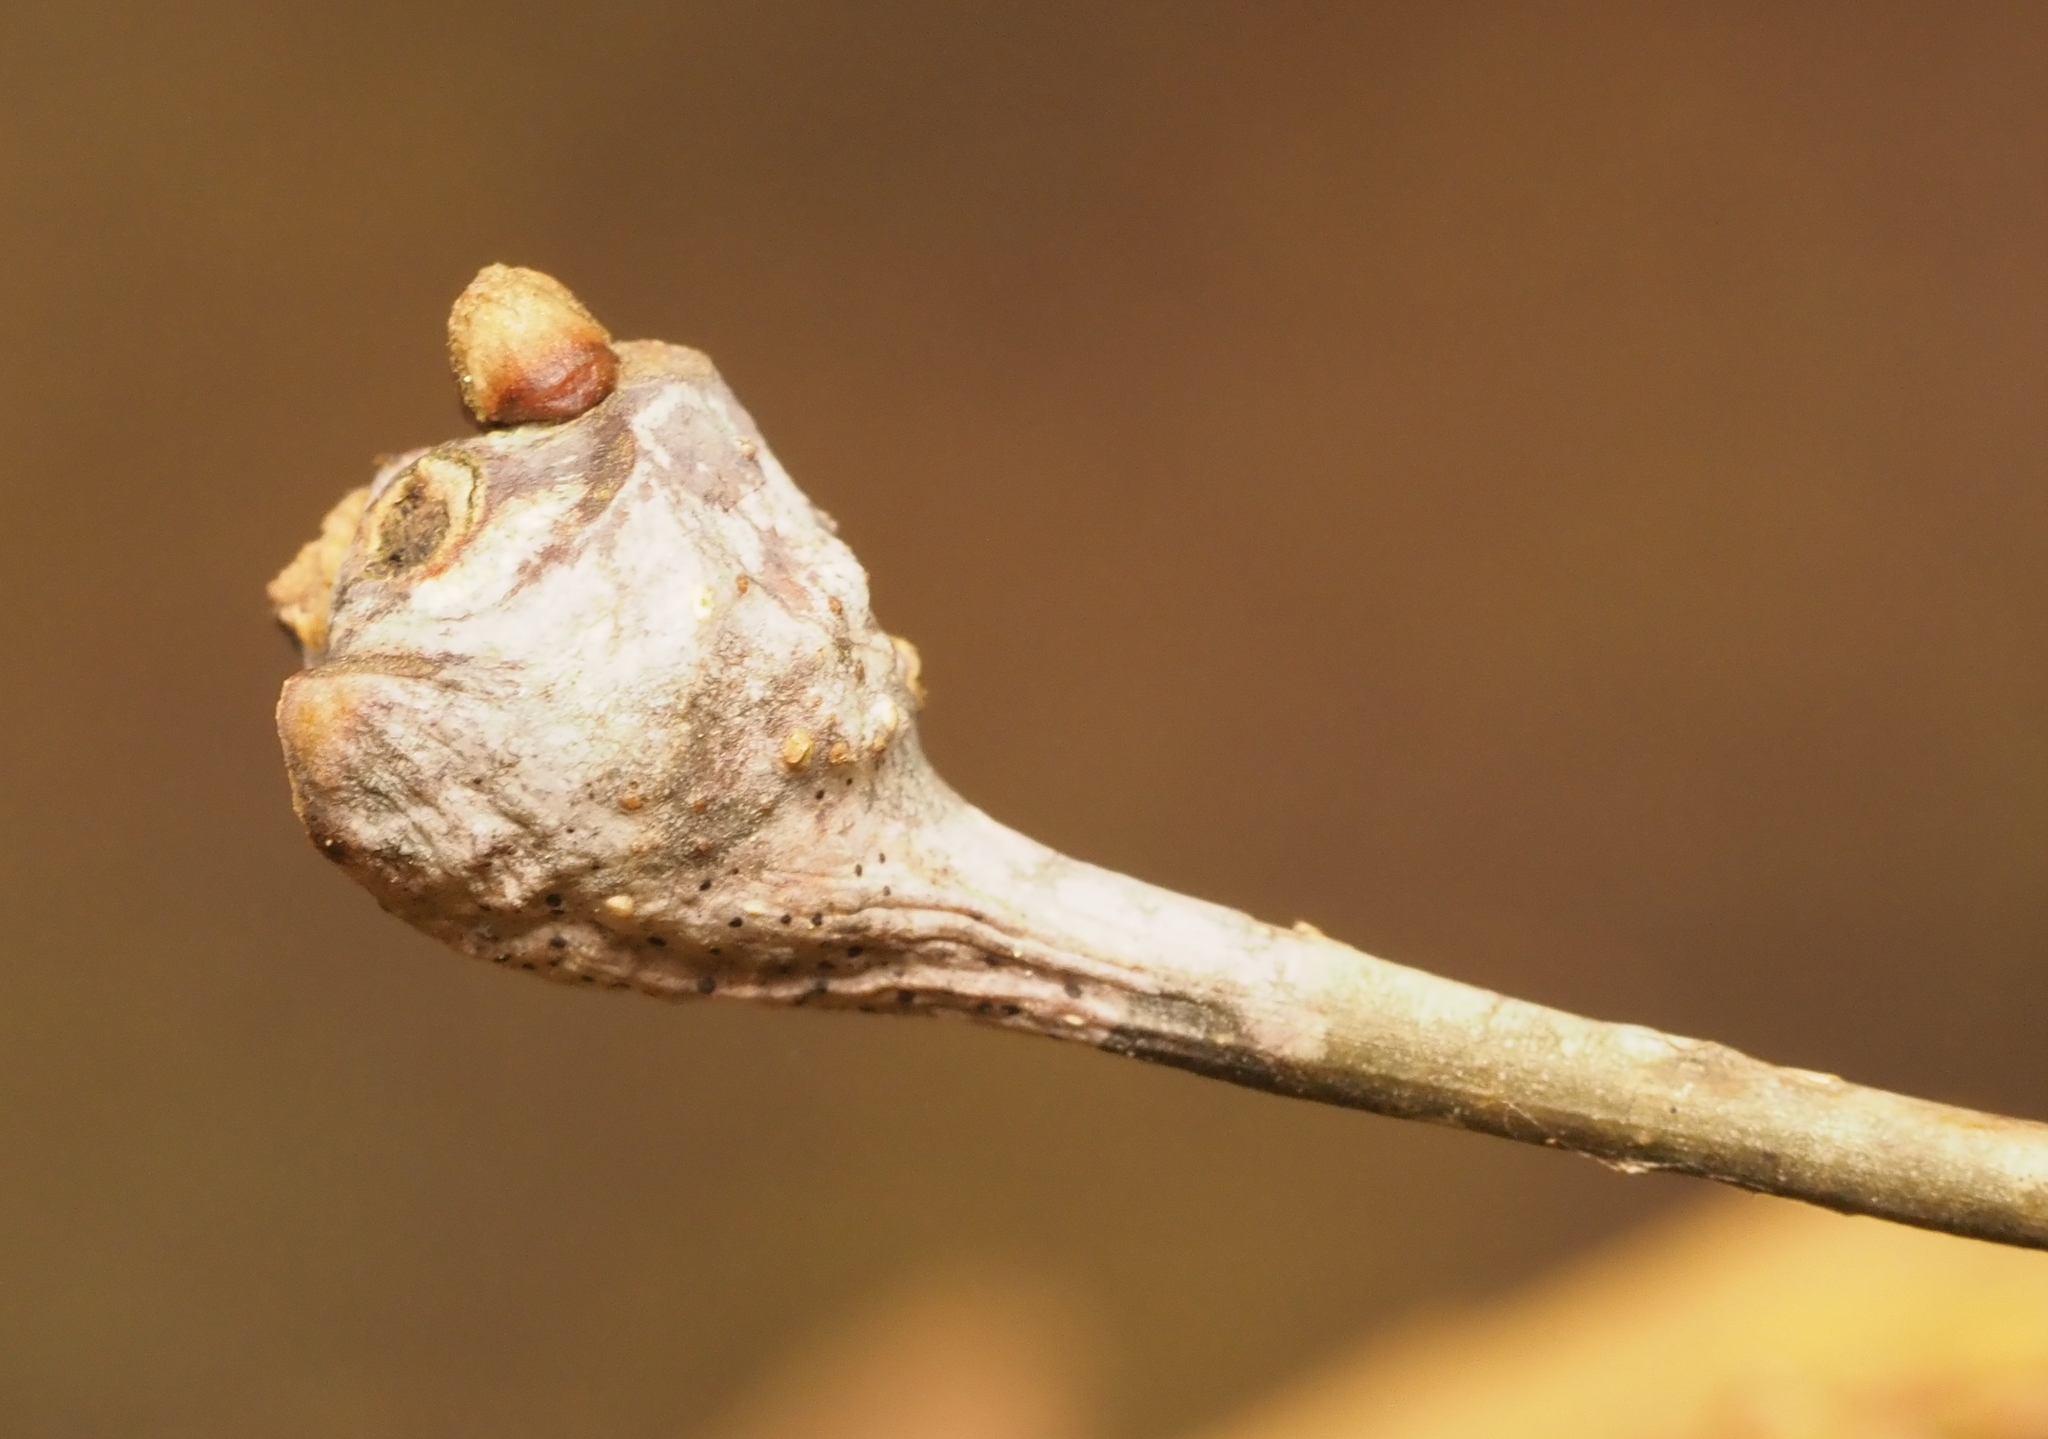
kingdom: Animalia
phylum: Arthropoda
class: Insecta
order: Hymenoptera
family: Cynipidae
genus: Callirhytis
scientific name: Callirhytis clavula
